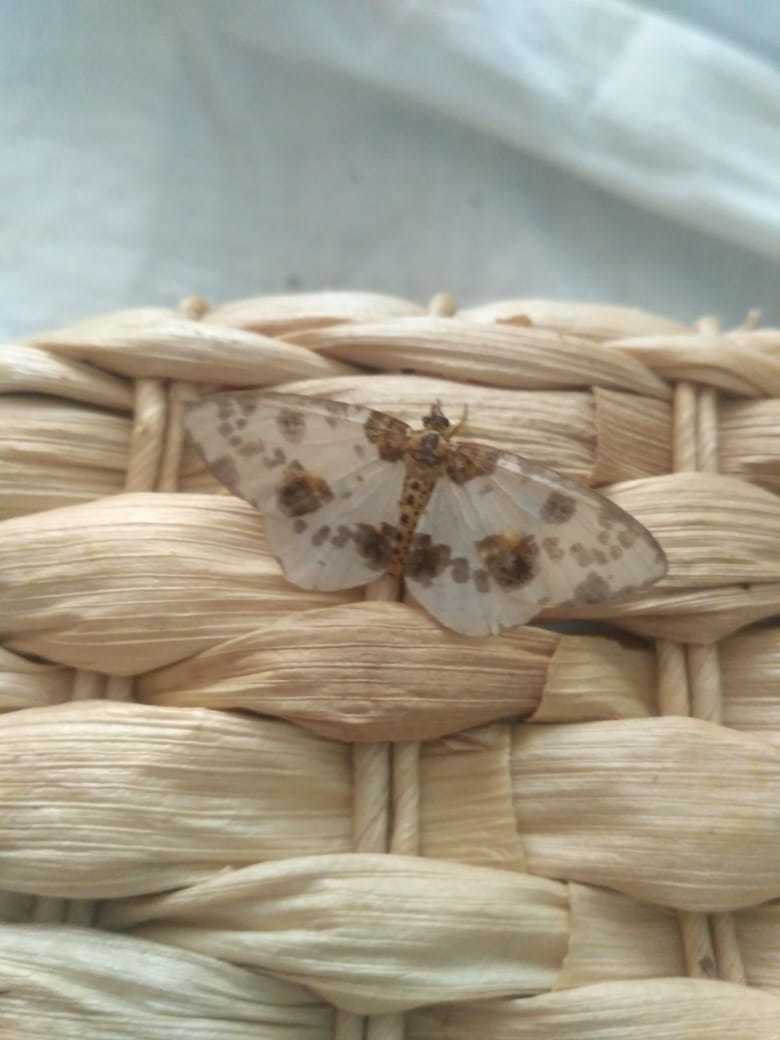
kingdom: Animalia
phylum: Arthropoda
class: Insecta
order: Lepidoptera
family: Geometridae
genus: Abraxas
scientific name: Abraxas sylvata
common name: Clouded magpie
